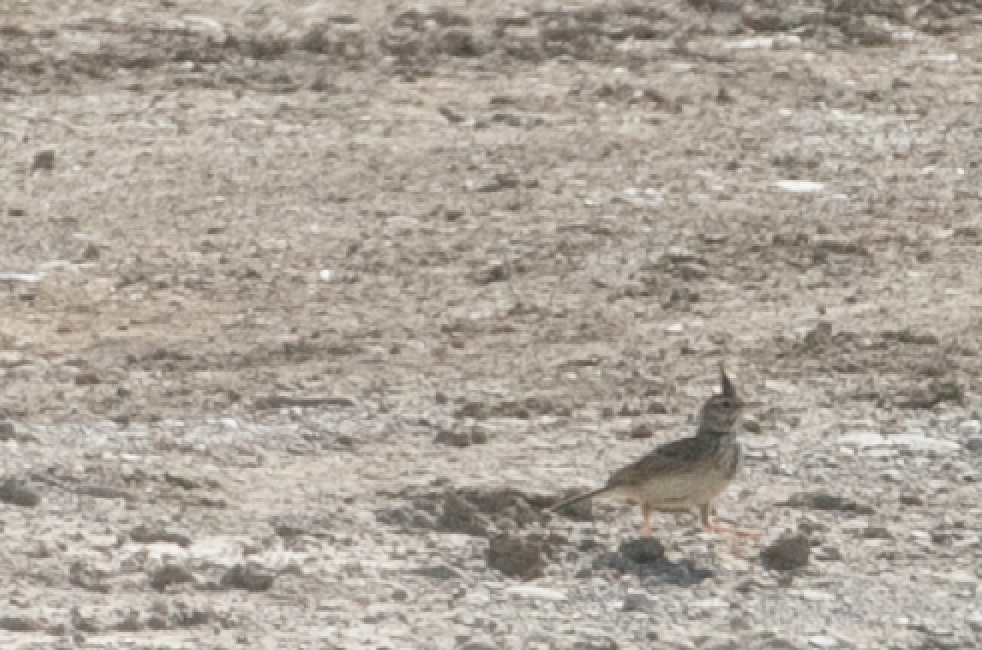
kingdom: Animalia
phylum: Chordata
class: Aves
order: Passeriformes
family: Alaudidae
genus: Galerida
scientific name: Galerida cristata
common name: Crested lark
